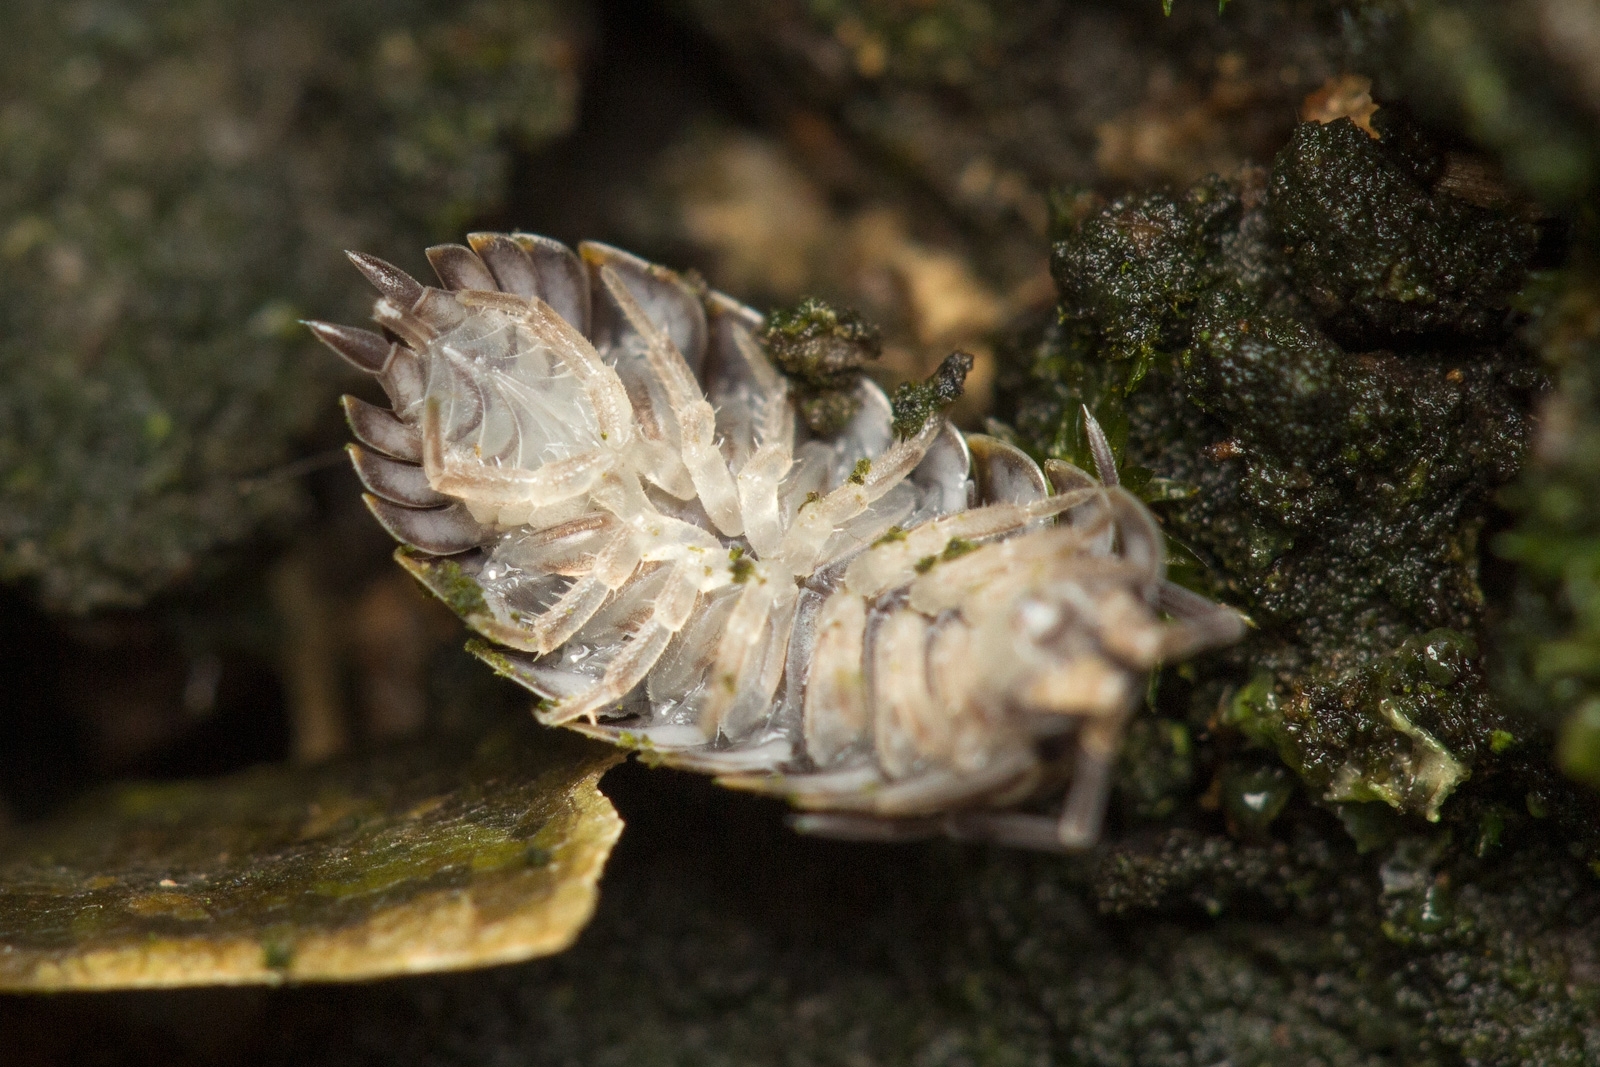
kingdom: Animalia
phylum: Arthropoda
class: Malacostraca
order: Isopoda
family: Trachelipodidae
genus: Trachelipus
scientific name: Trachelipus rathkii
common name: Isopod
